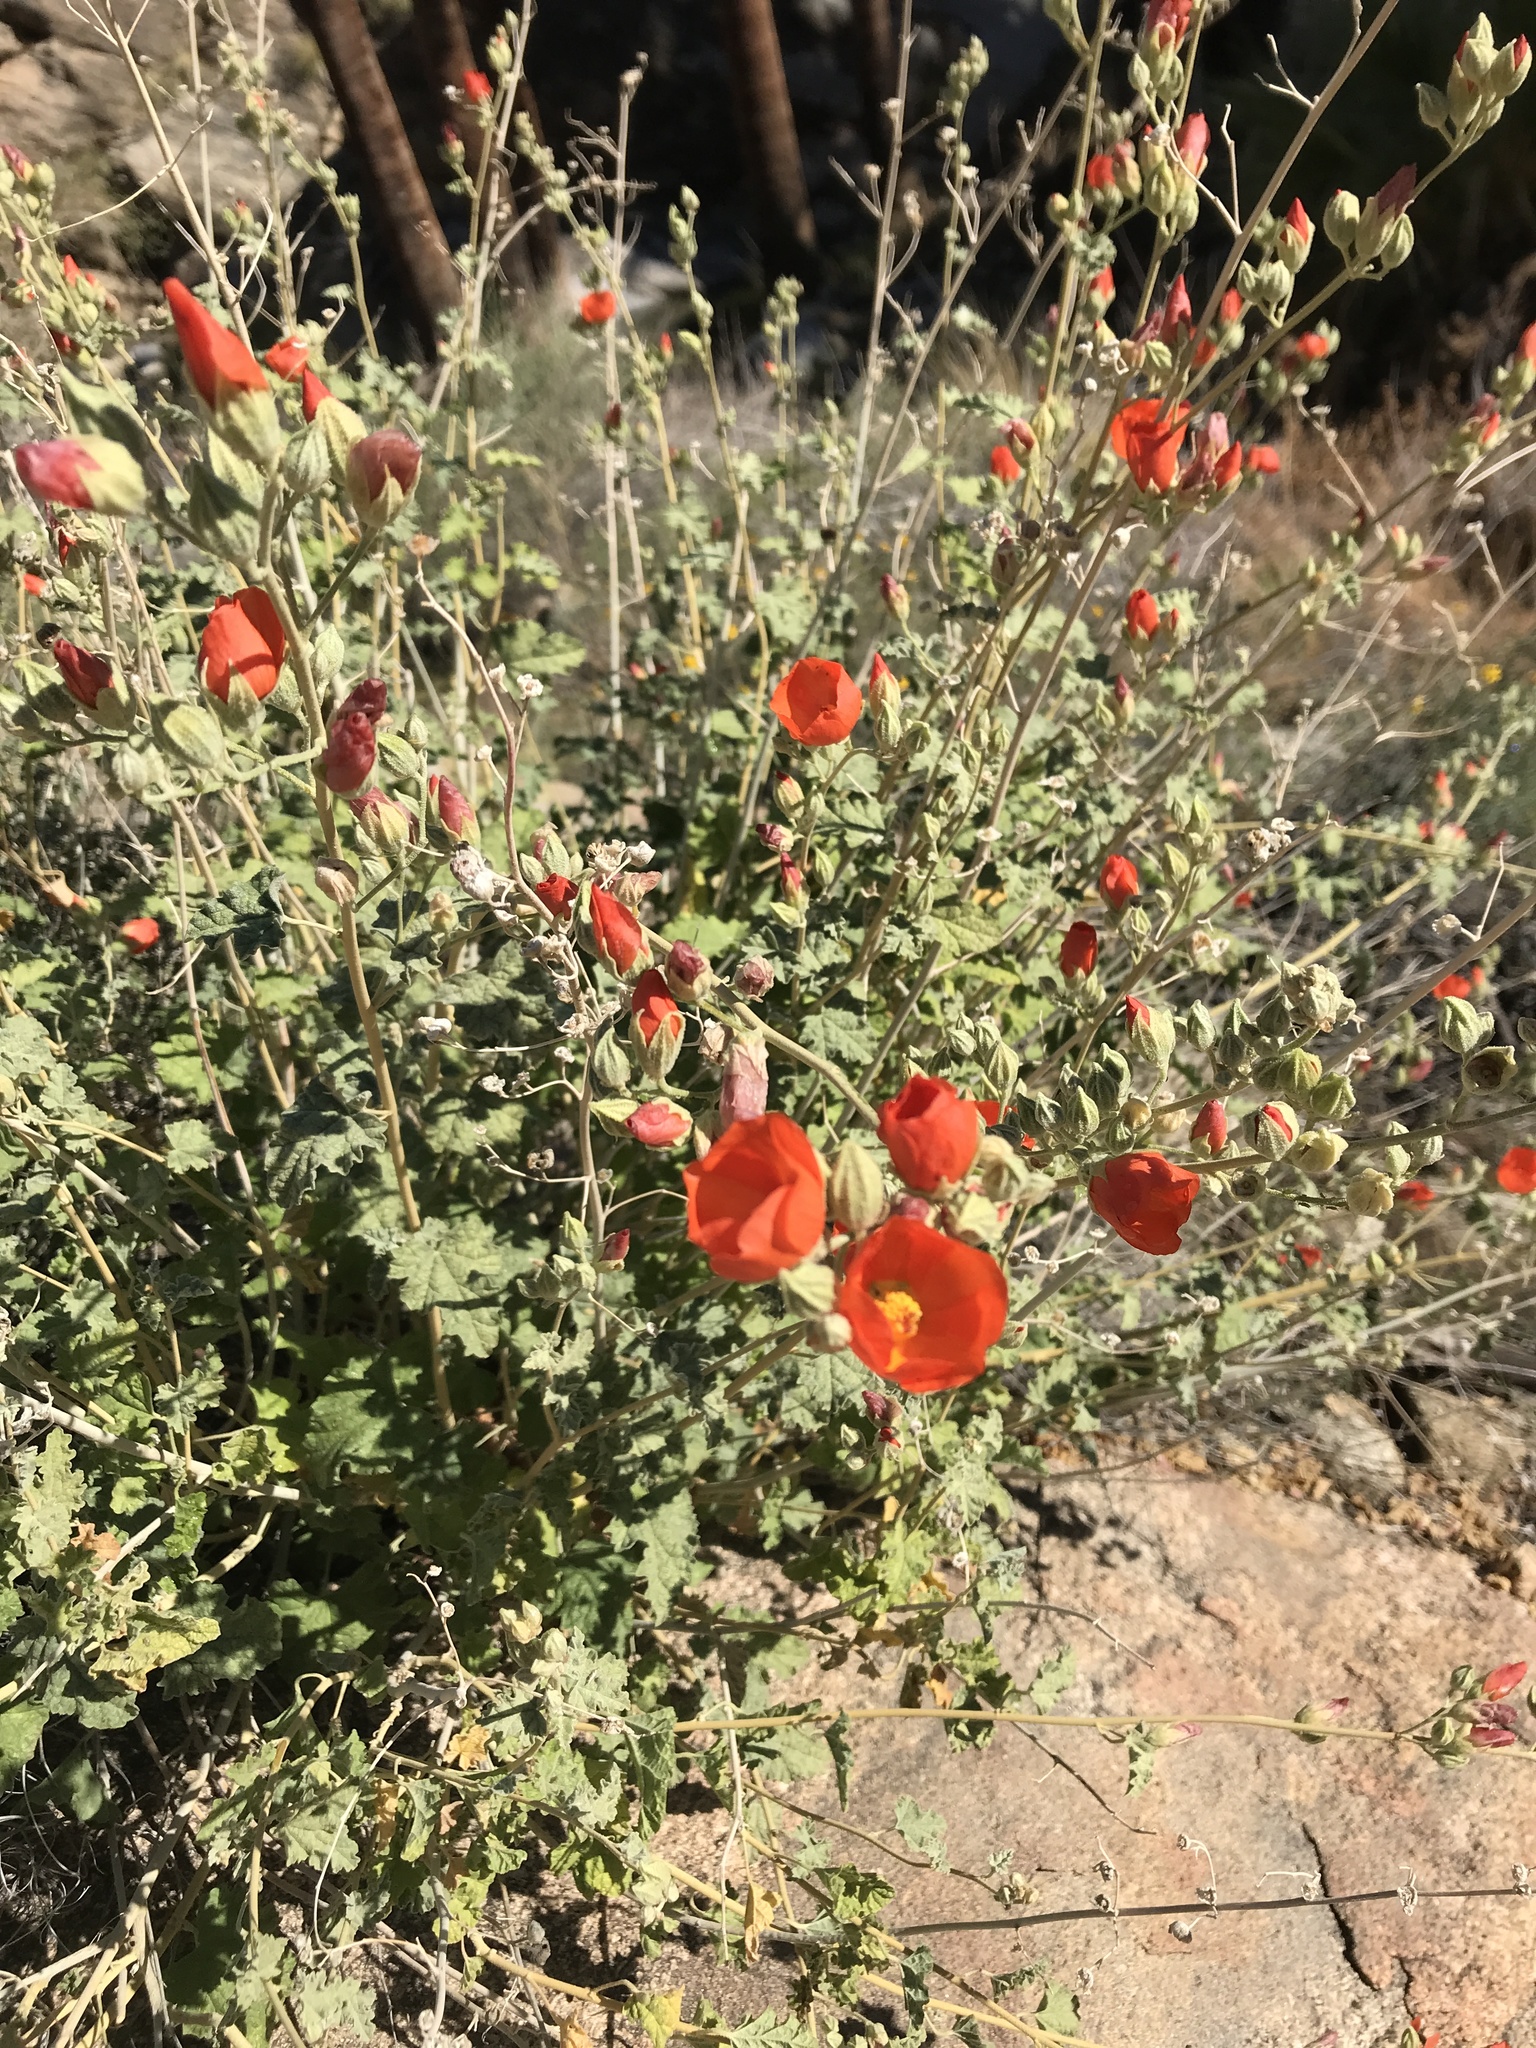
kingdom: Plantae
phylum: Tracheophyta
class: Magnoliopsida
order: Malvales
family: Malvaceae
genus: Sphaeralcea
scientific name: Sphaeralcea ambigua
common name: Apricot globe-mallow
